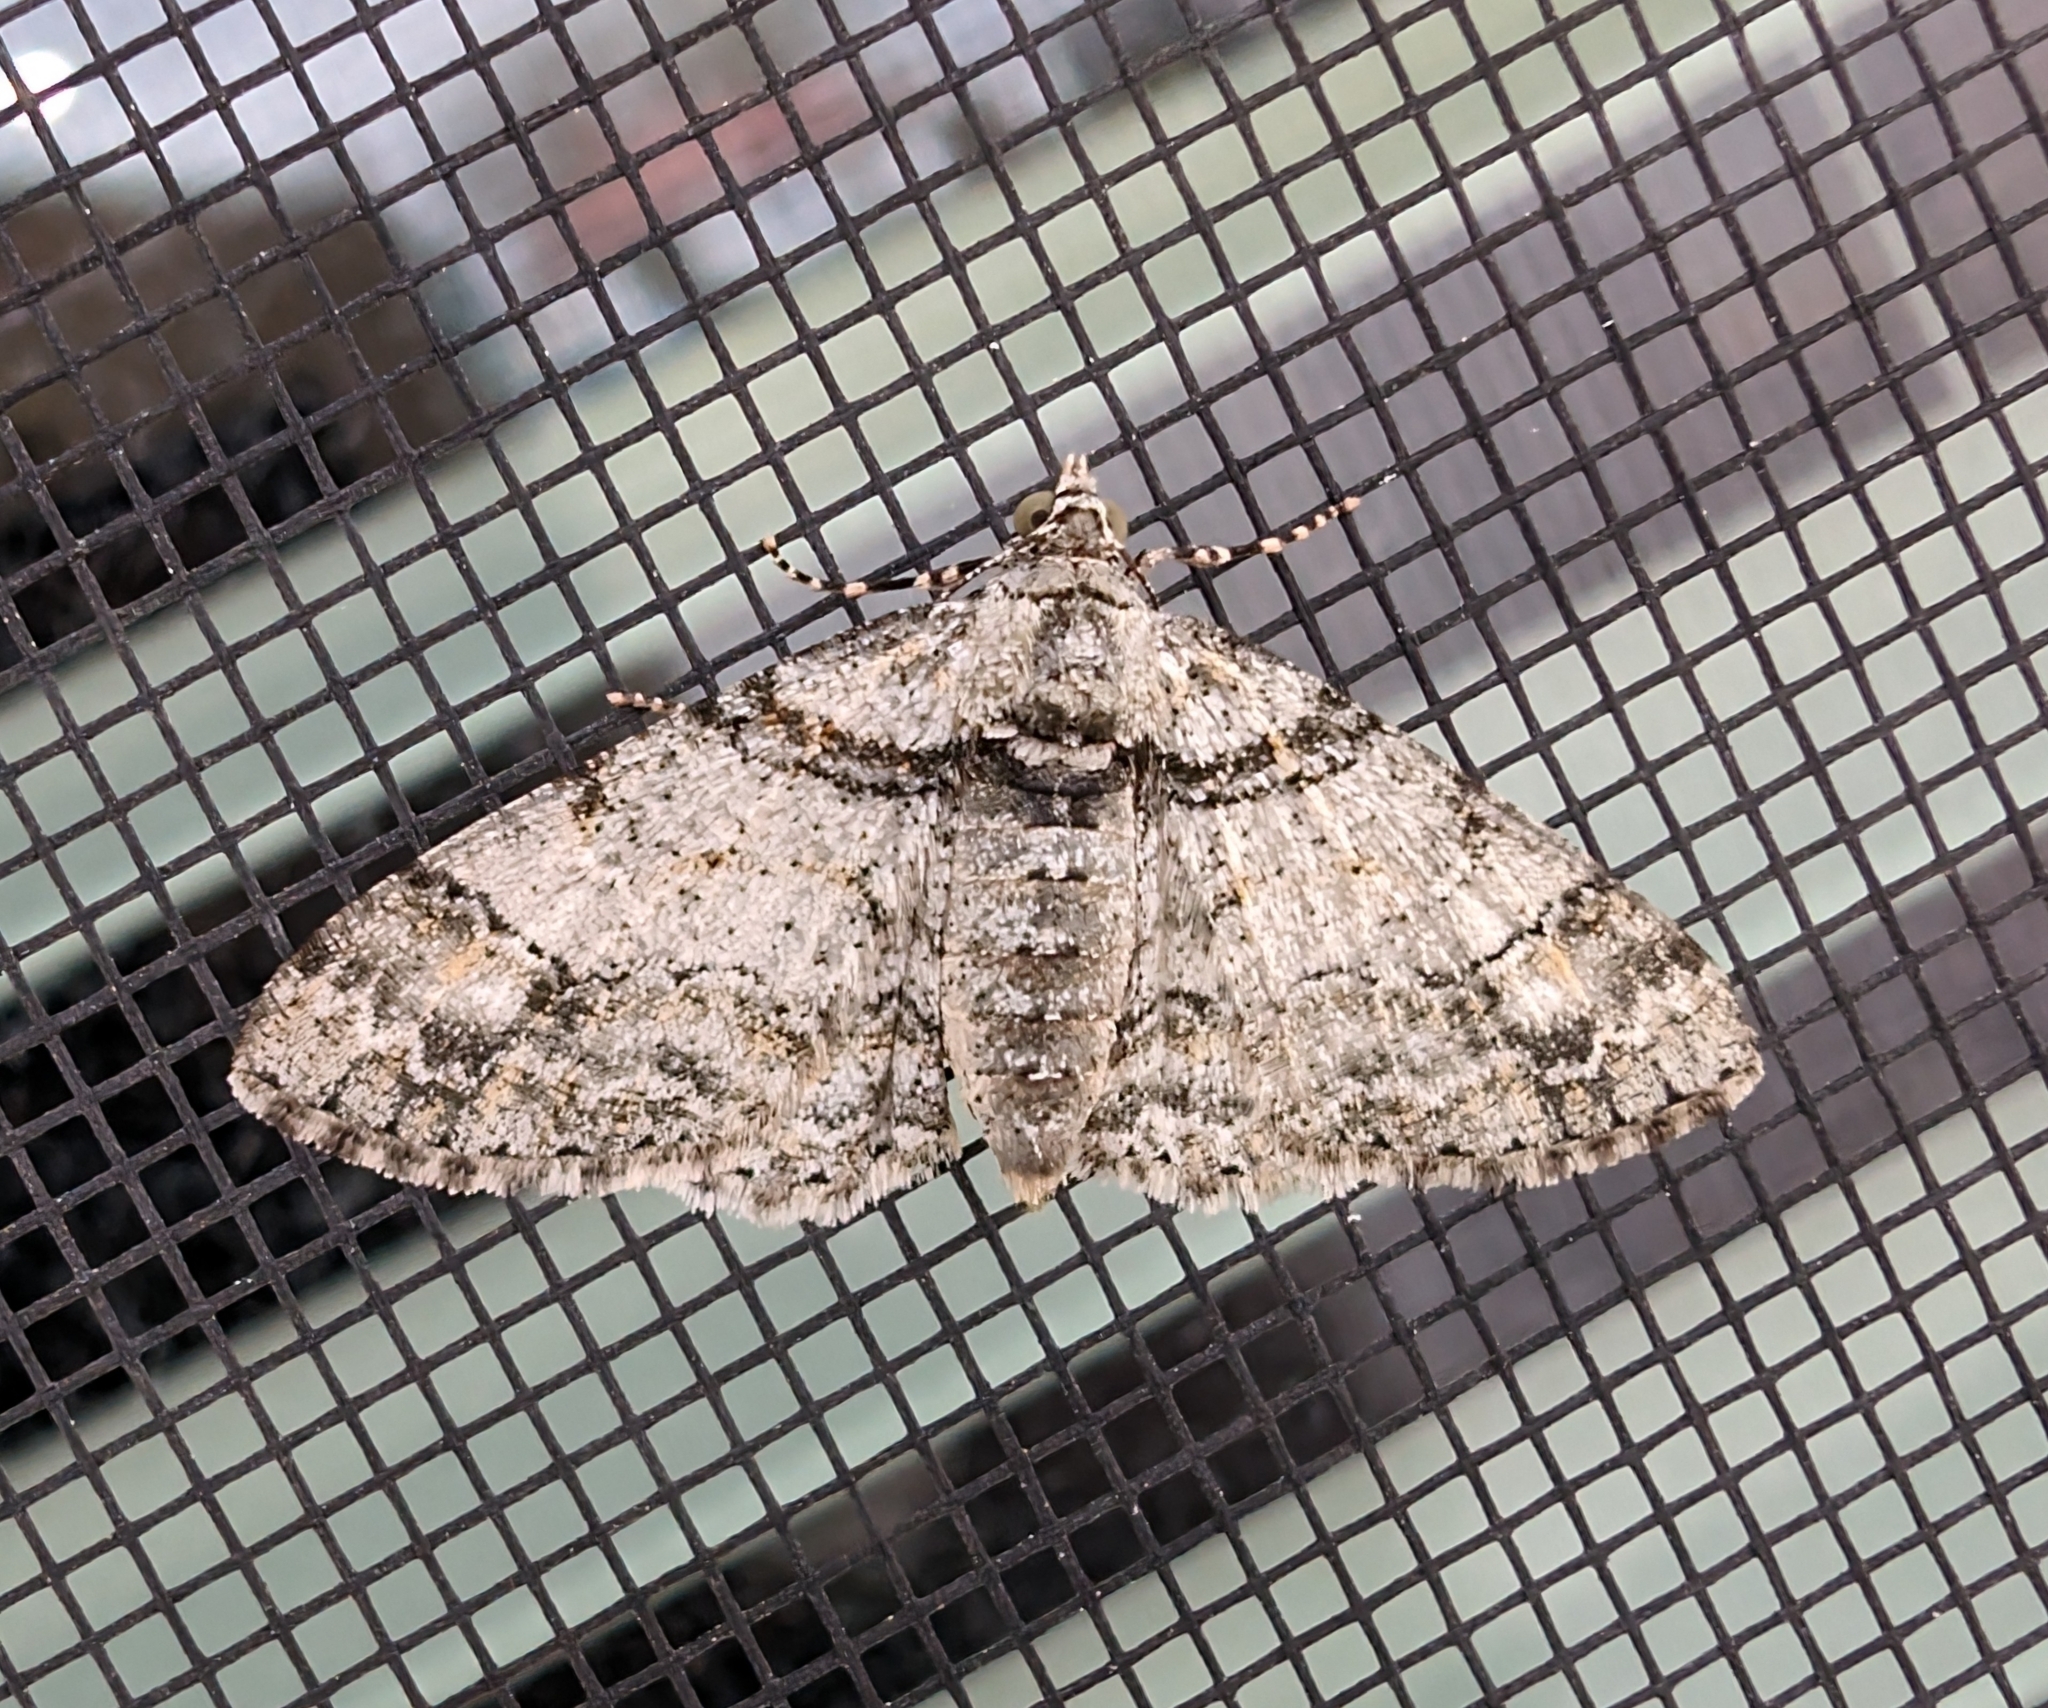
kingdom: Animalia
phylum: Arthropoda
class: Insecta
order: Lepidoptera
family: Geometridae
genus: Cleora
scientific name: Cleora sublunaria
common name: Double-lined gray
